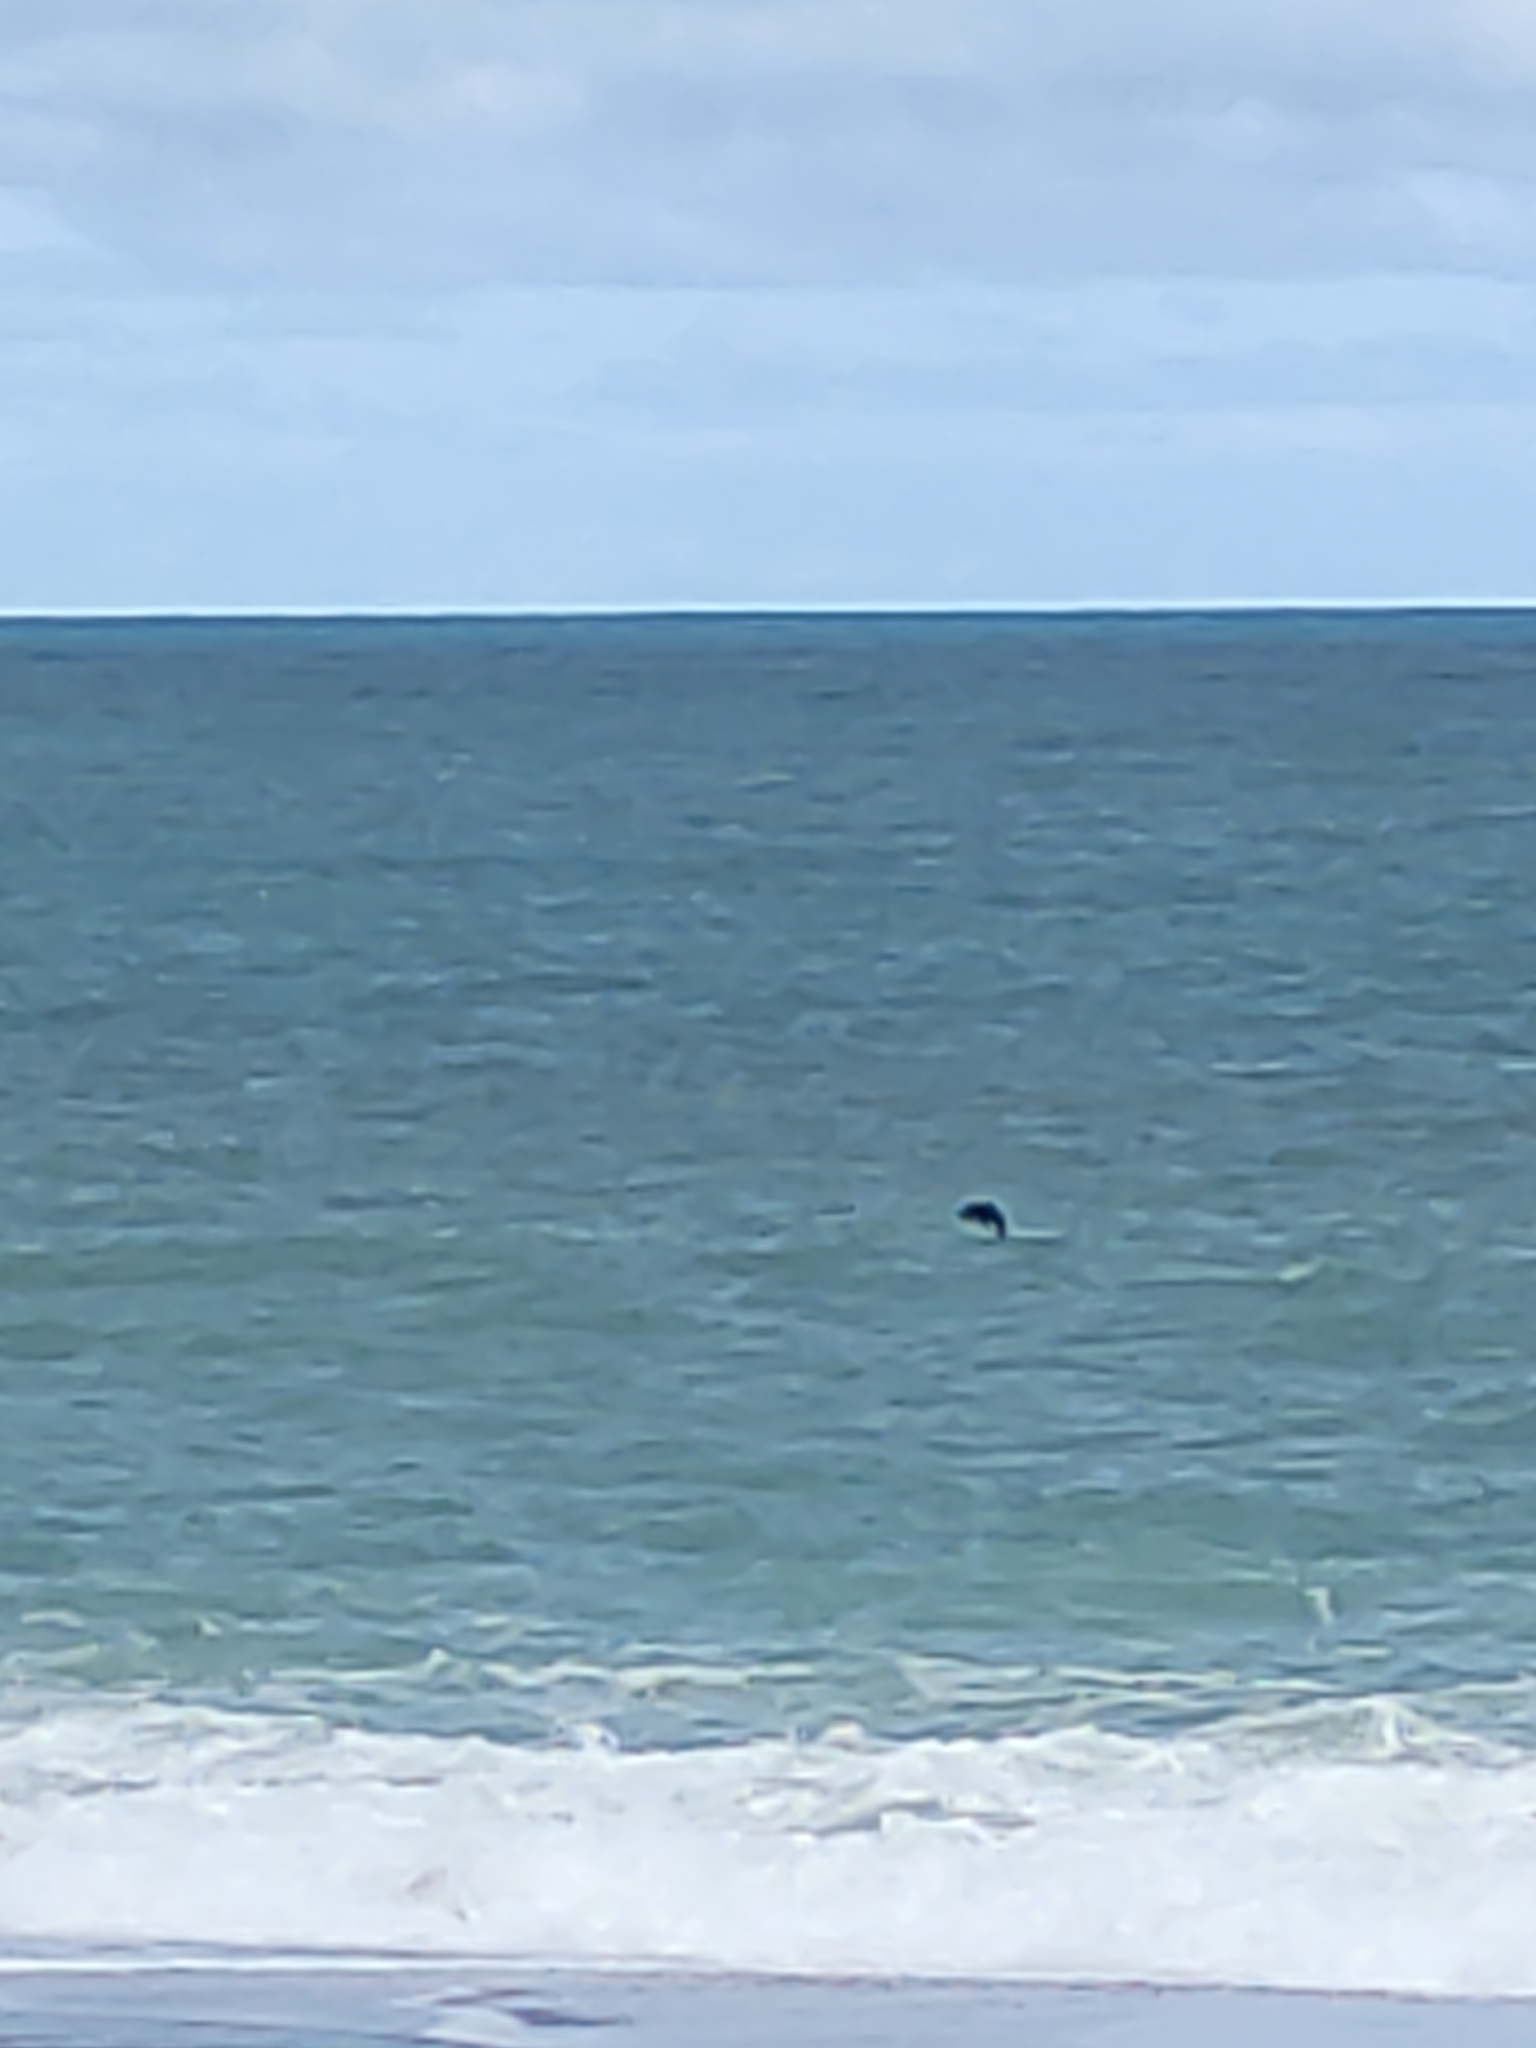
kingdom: Animalia
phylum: Chordata
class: Mammalia
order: Carnivora
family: Otariidae
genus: Arctocephalus
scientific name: Arctocephalus forsteri
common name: New zealand fur seal
